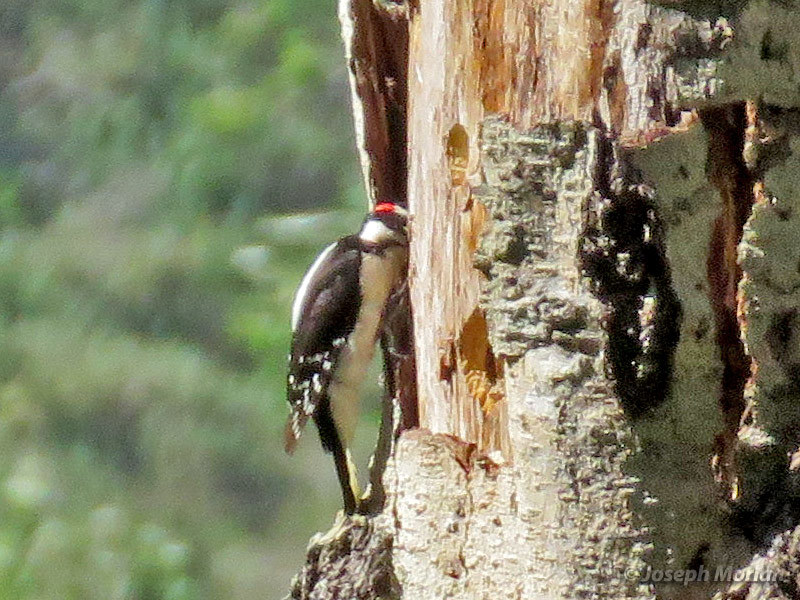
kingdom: Animalia
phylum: Chordata
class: Aves
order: Piciformes
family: Picidae
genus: Dryobates
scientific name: Dryobates pubescens
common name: Downy woodpecker
